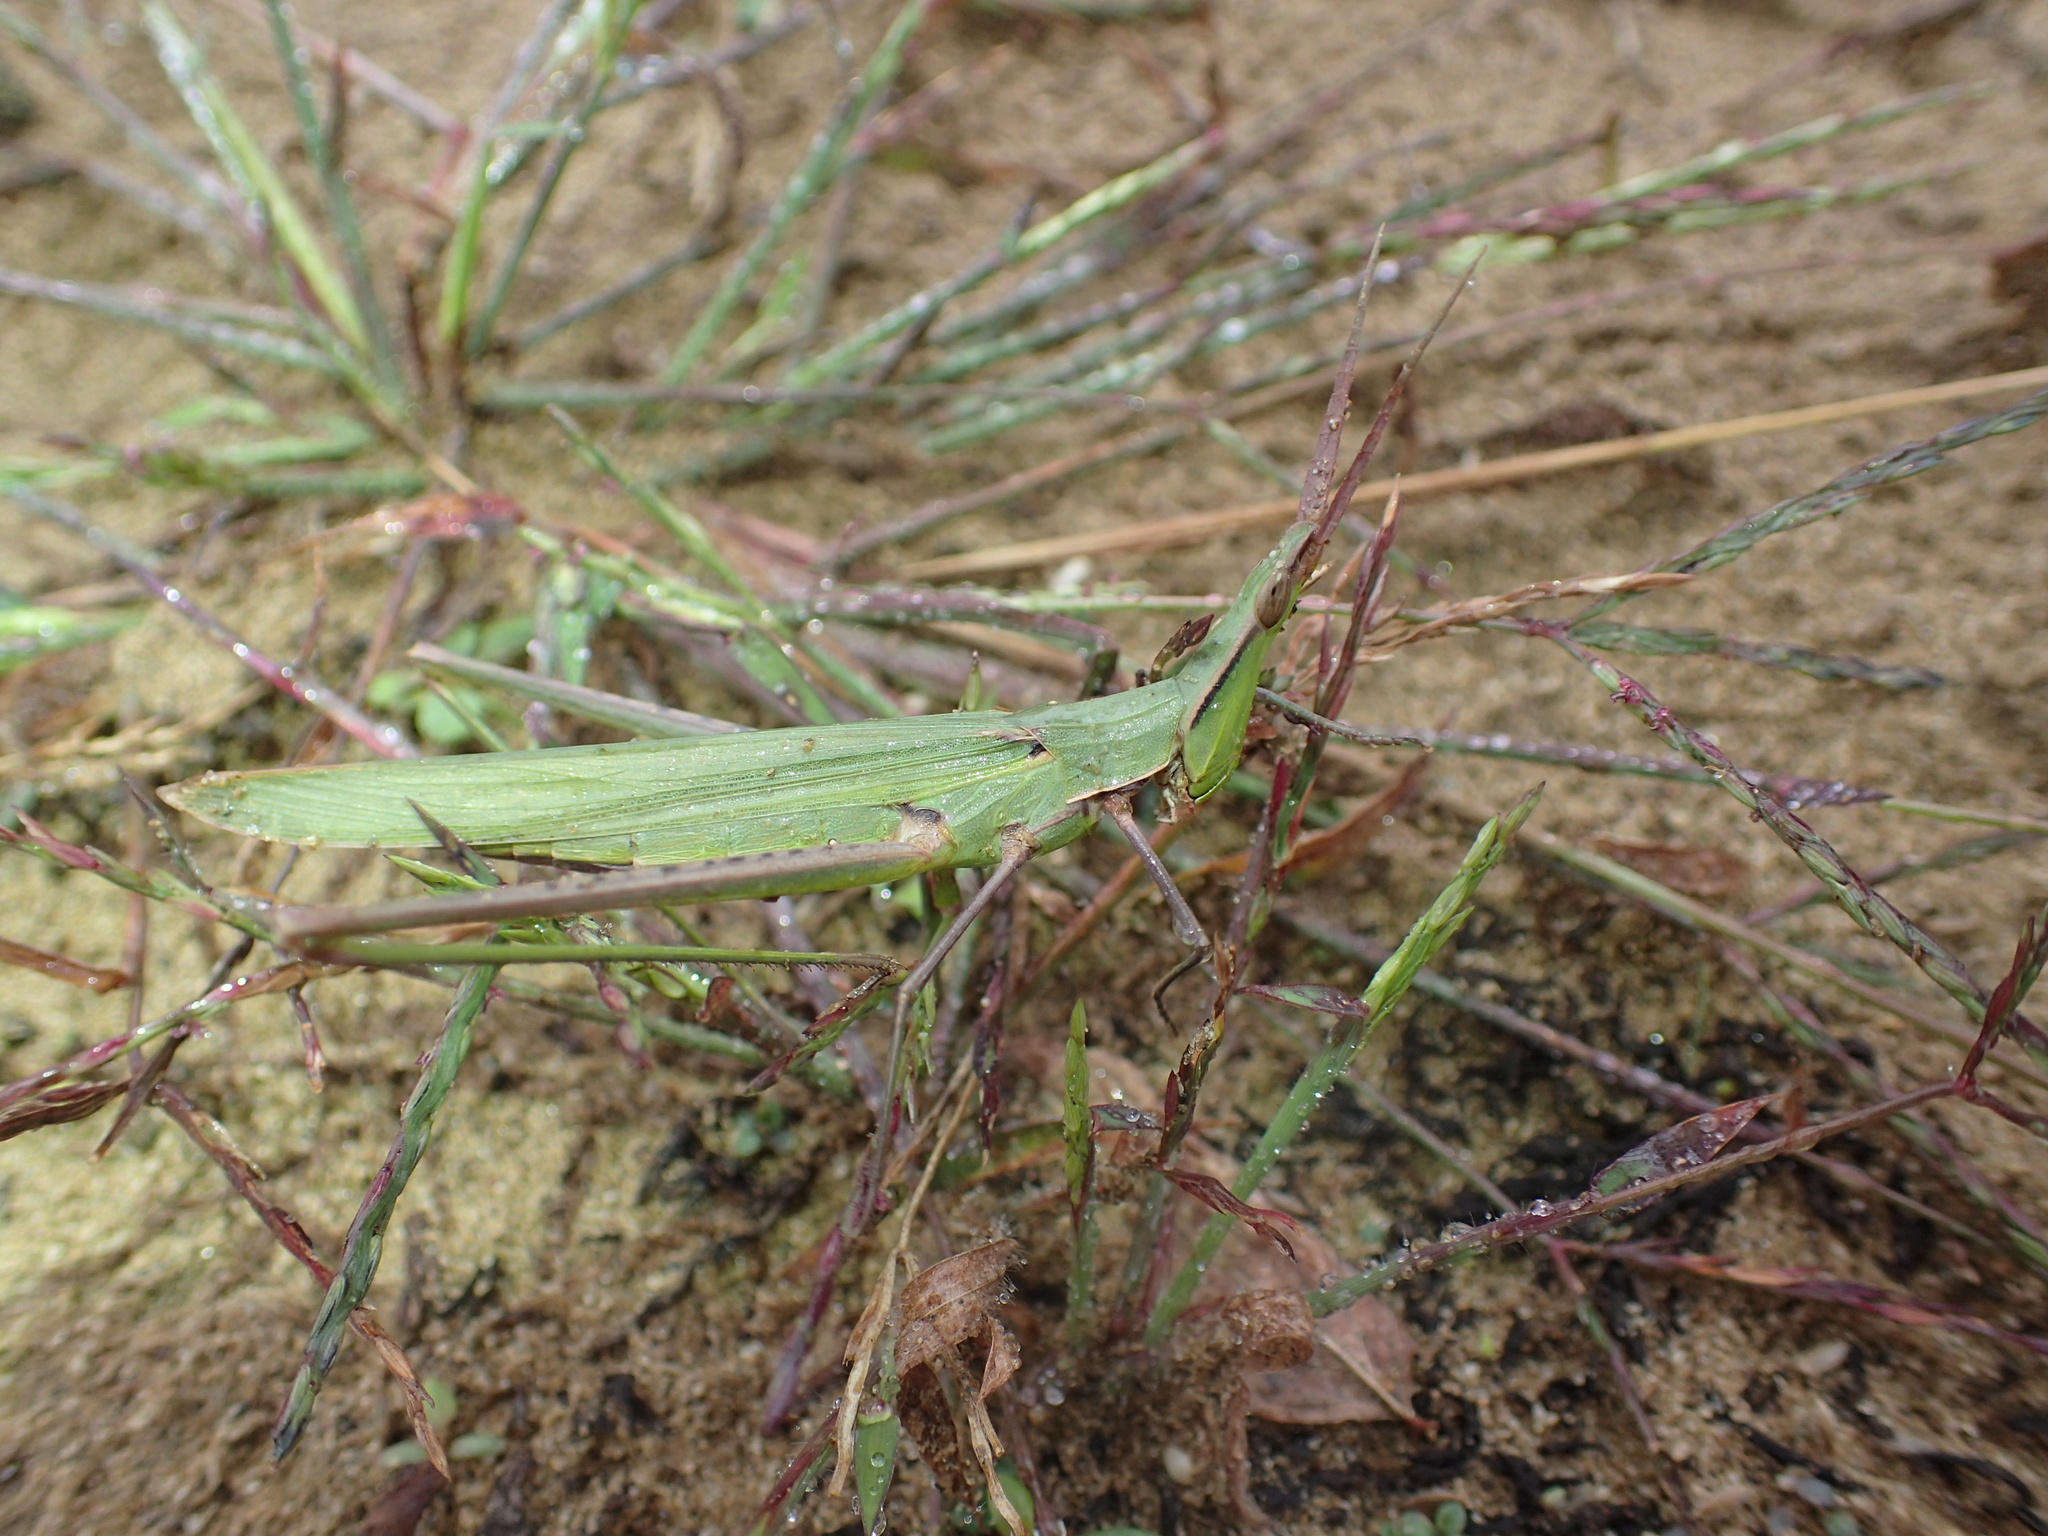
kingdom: Animalia
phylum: Arthropoda
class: Insecta
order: Orthoptera
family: Acrididae
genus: Acrida
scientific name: Acrida ungarica
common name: Common cone-headed grasshopper
